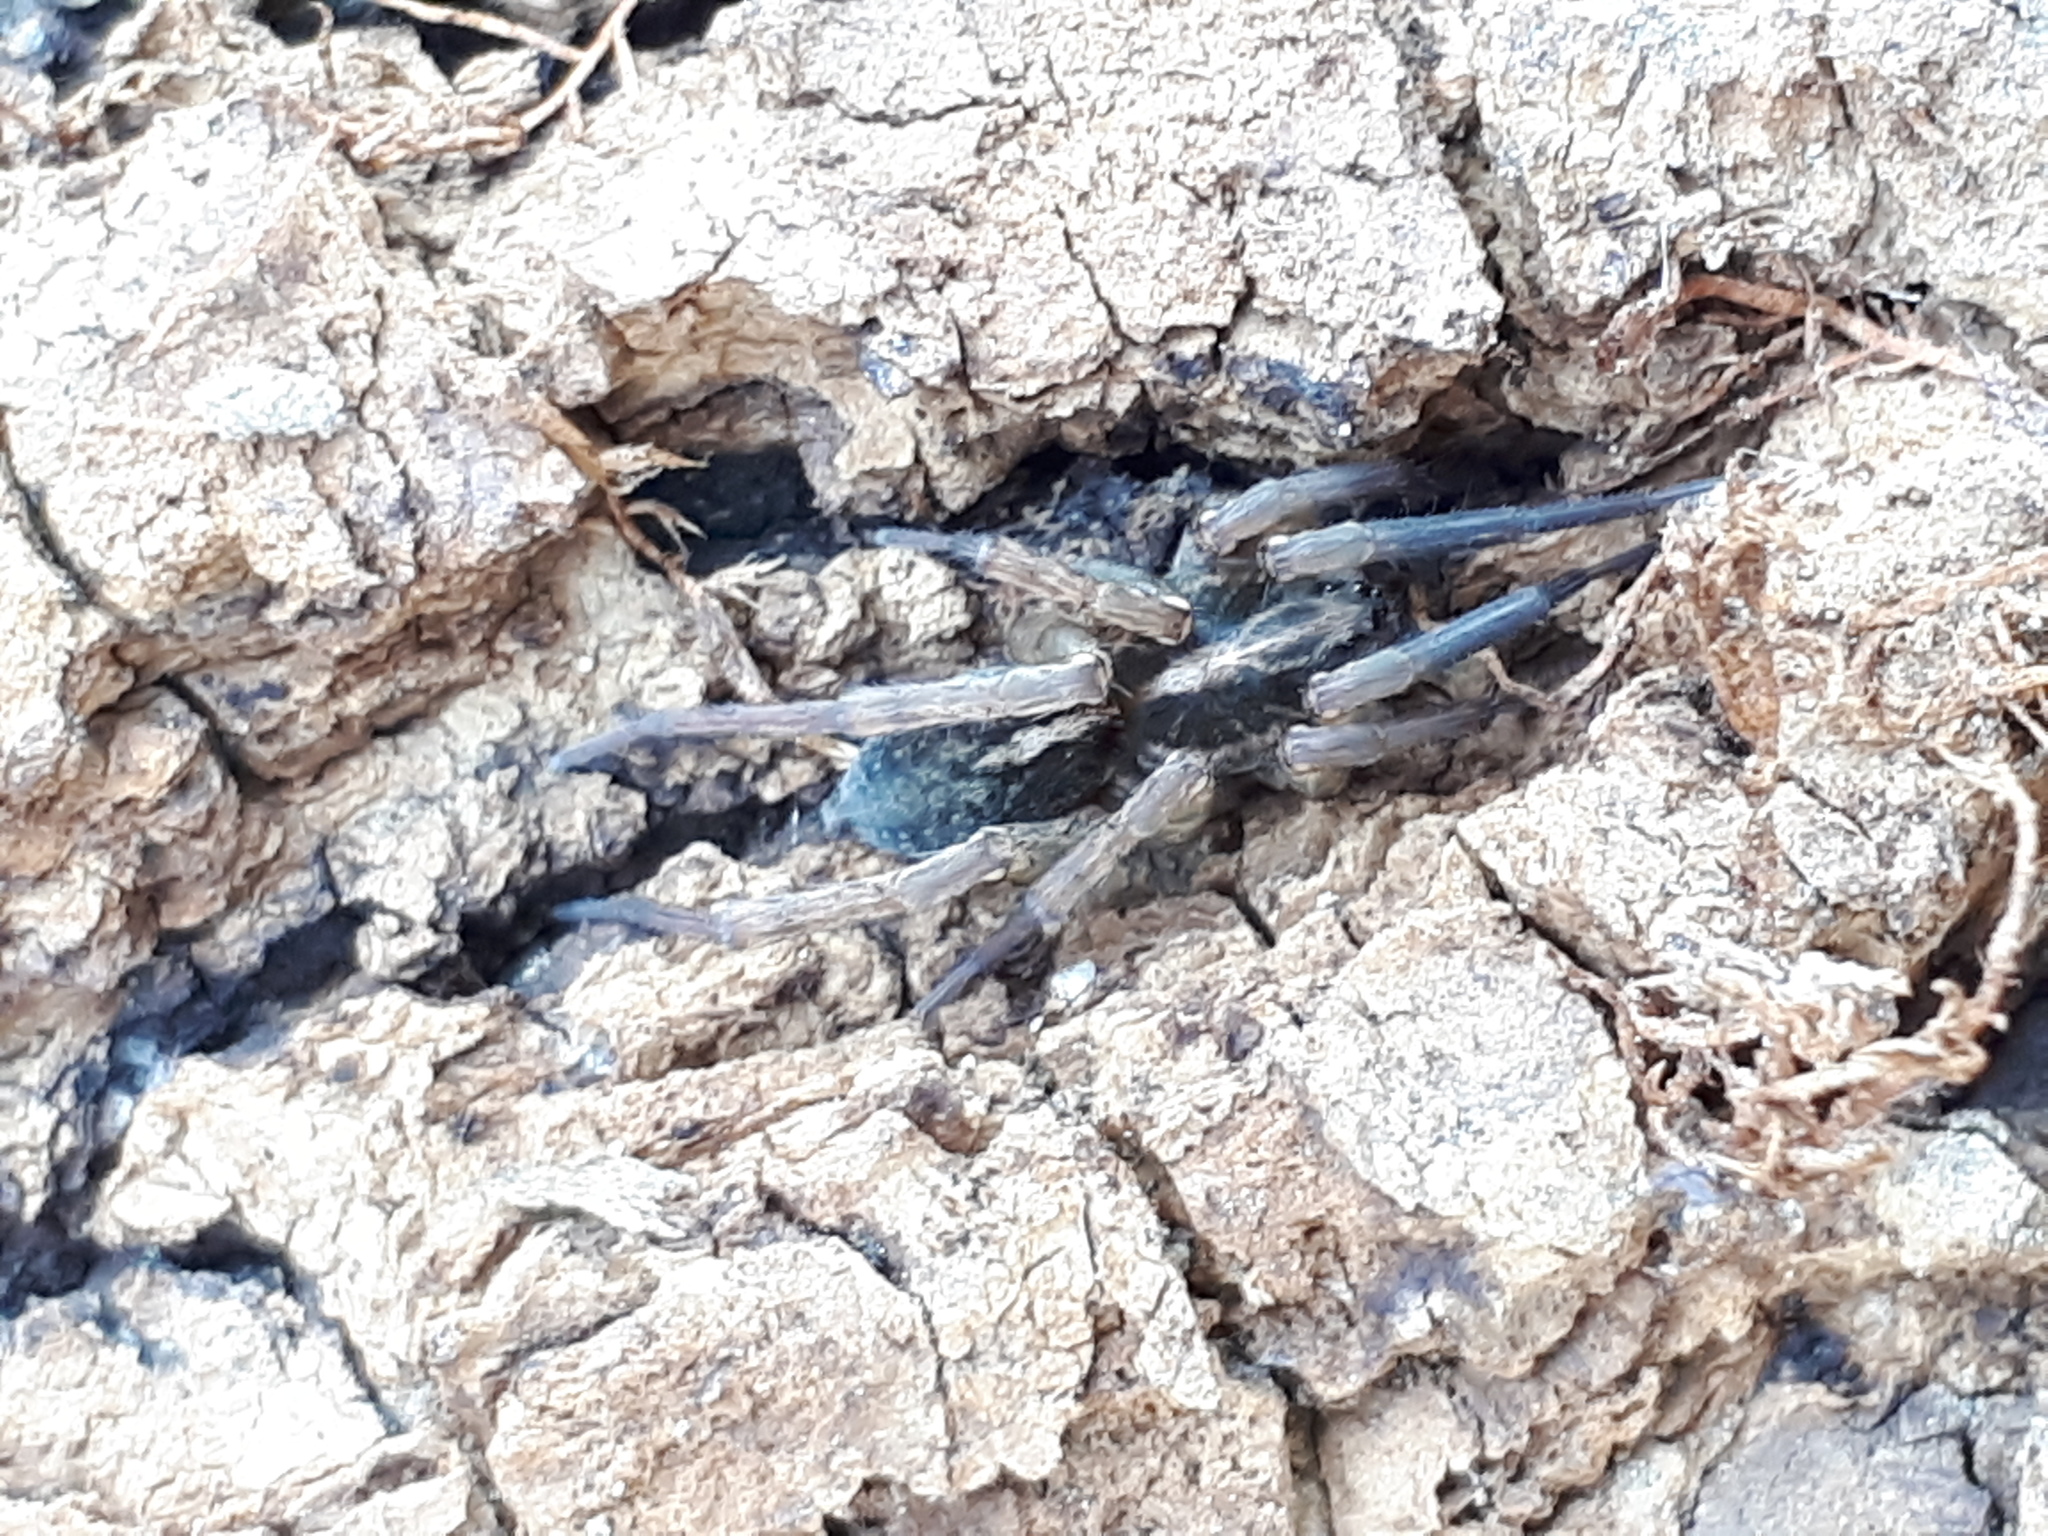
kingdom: Animalia
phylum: Arthropoda
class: Arachnida
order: Araneae
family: Lycosidae
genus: Trochosa
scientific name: Trochosa robusta
